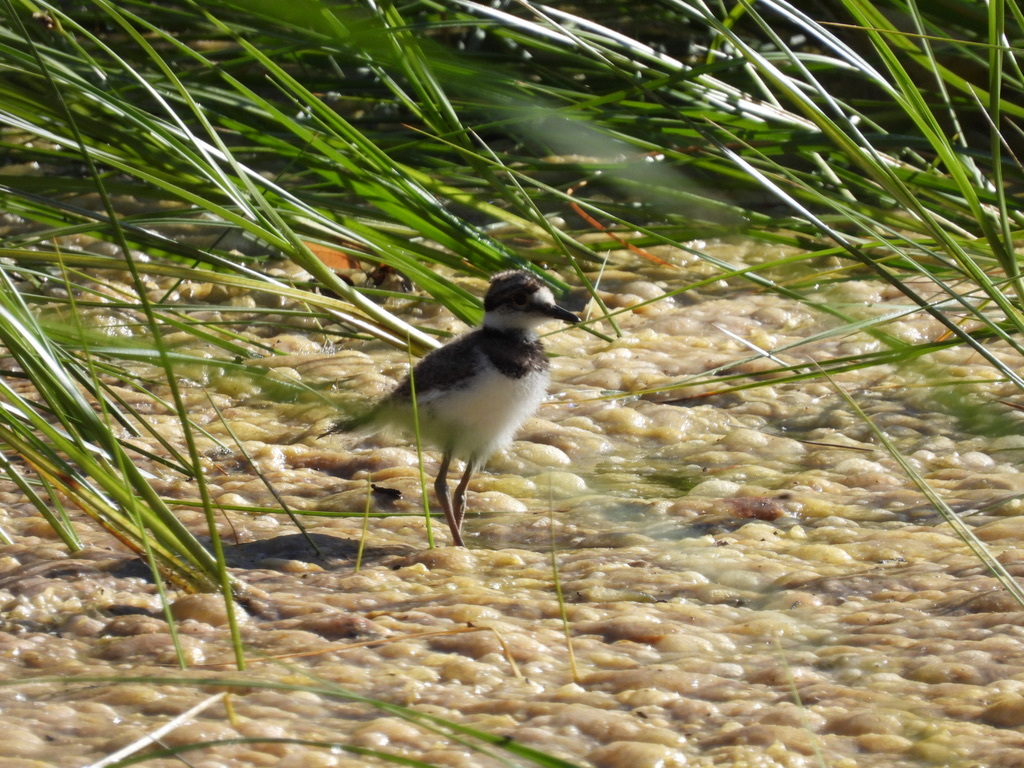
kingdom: Animalia
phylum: Chordata
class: Aves
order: Charadriiformes
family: Charadriidae
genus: Charadrius
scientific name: Charadrius vociferus
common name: Killdeer
